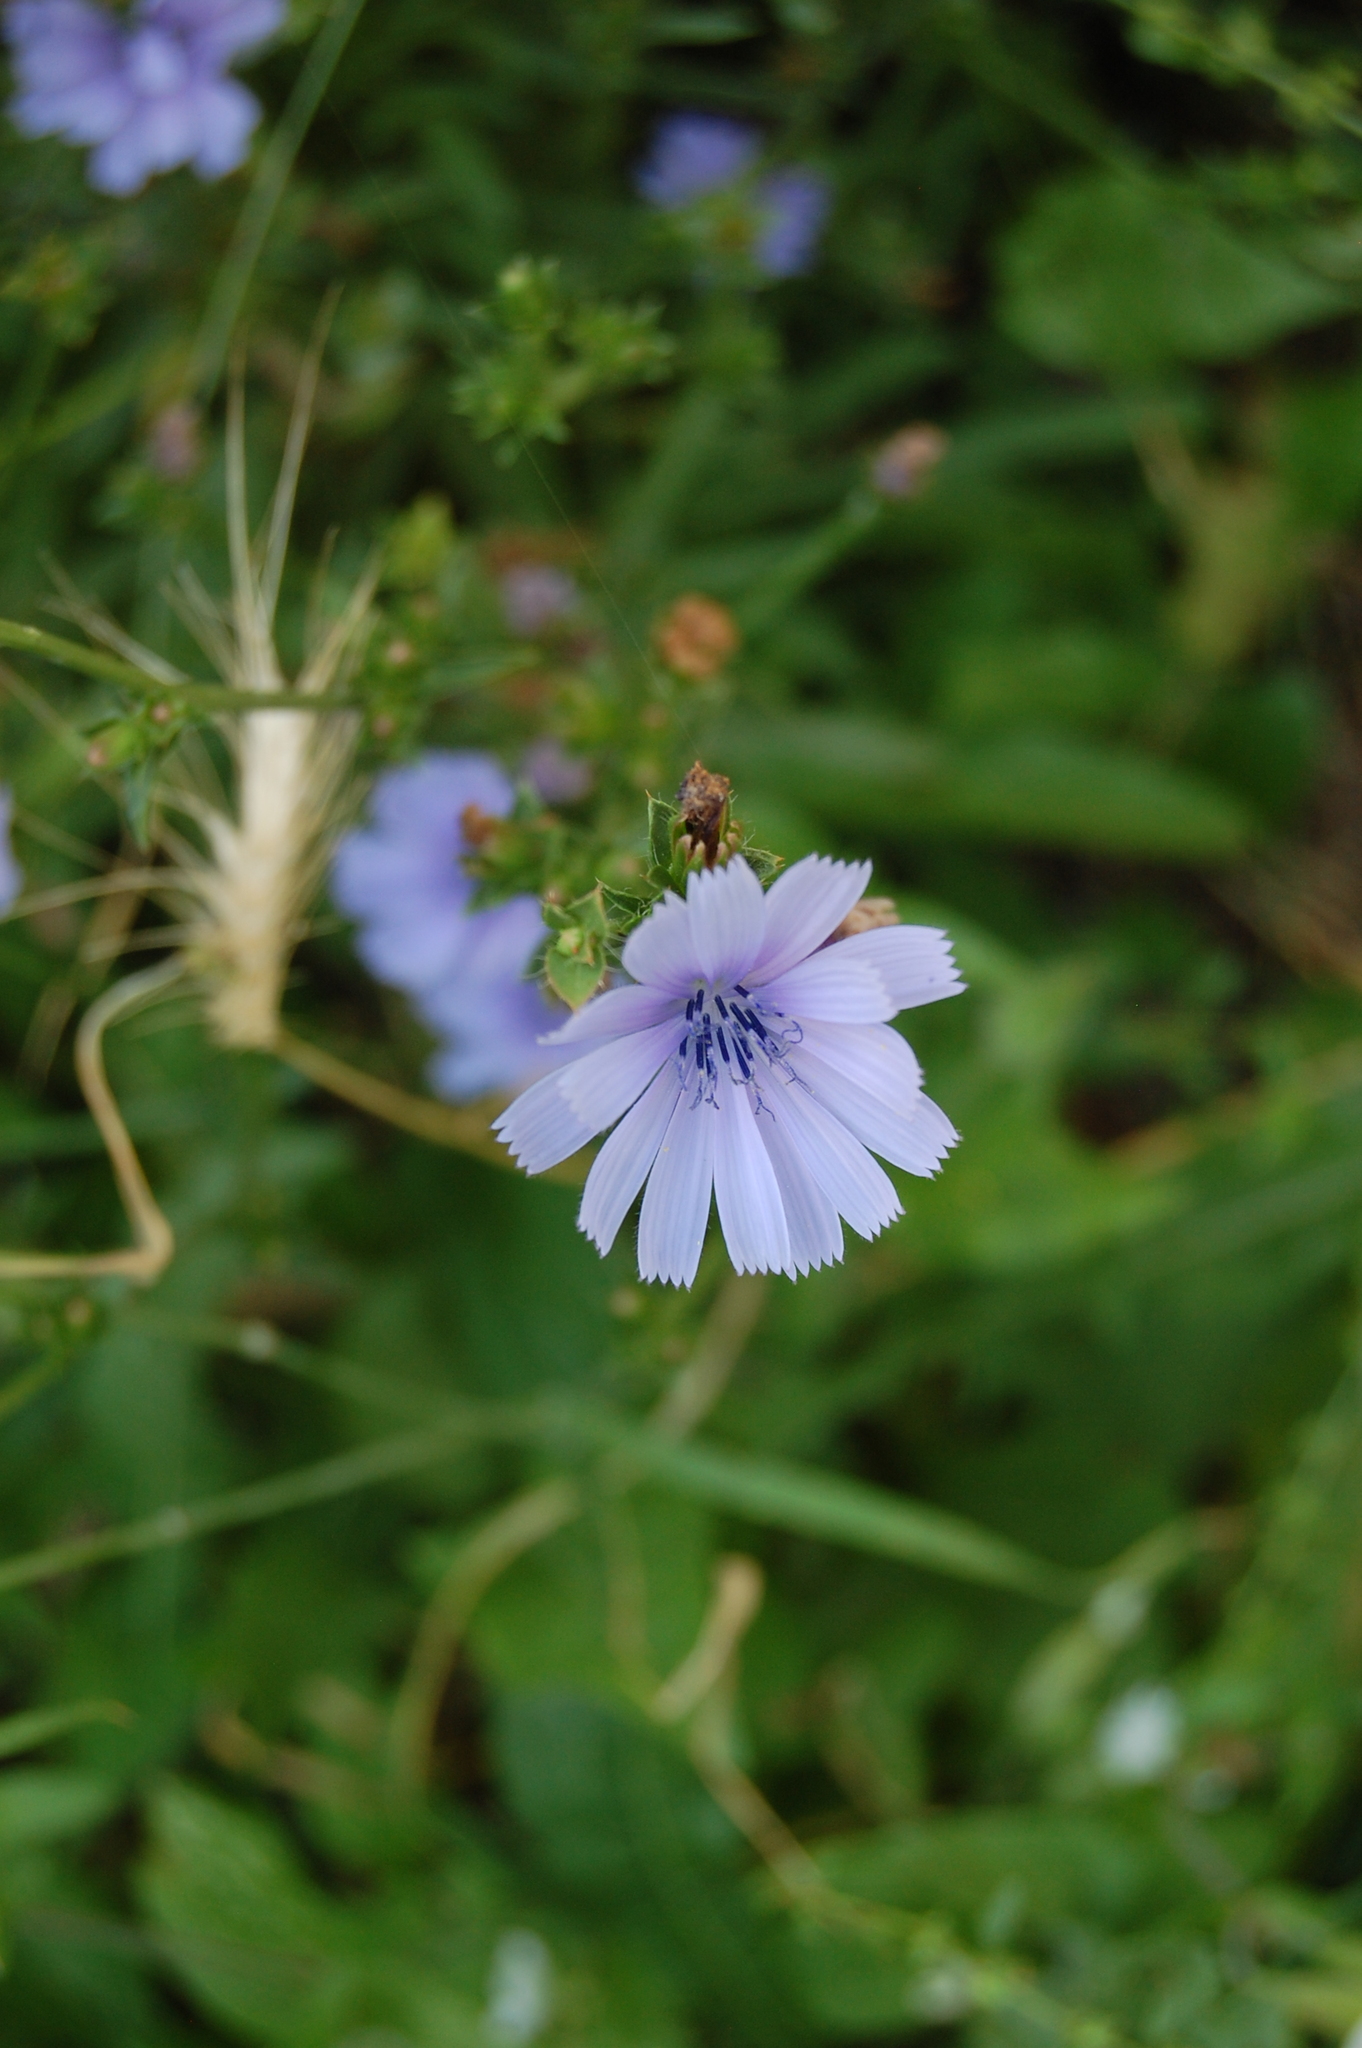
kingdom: Plantae
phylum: Tracheophyta
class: Magnoliopsida
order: Asterales
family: Asteraceae
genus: Cichorium
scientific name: Cichorium intybus
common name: Chicory
